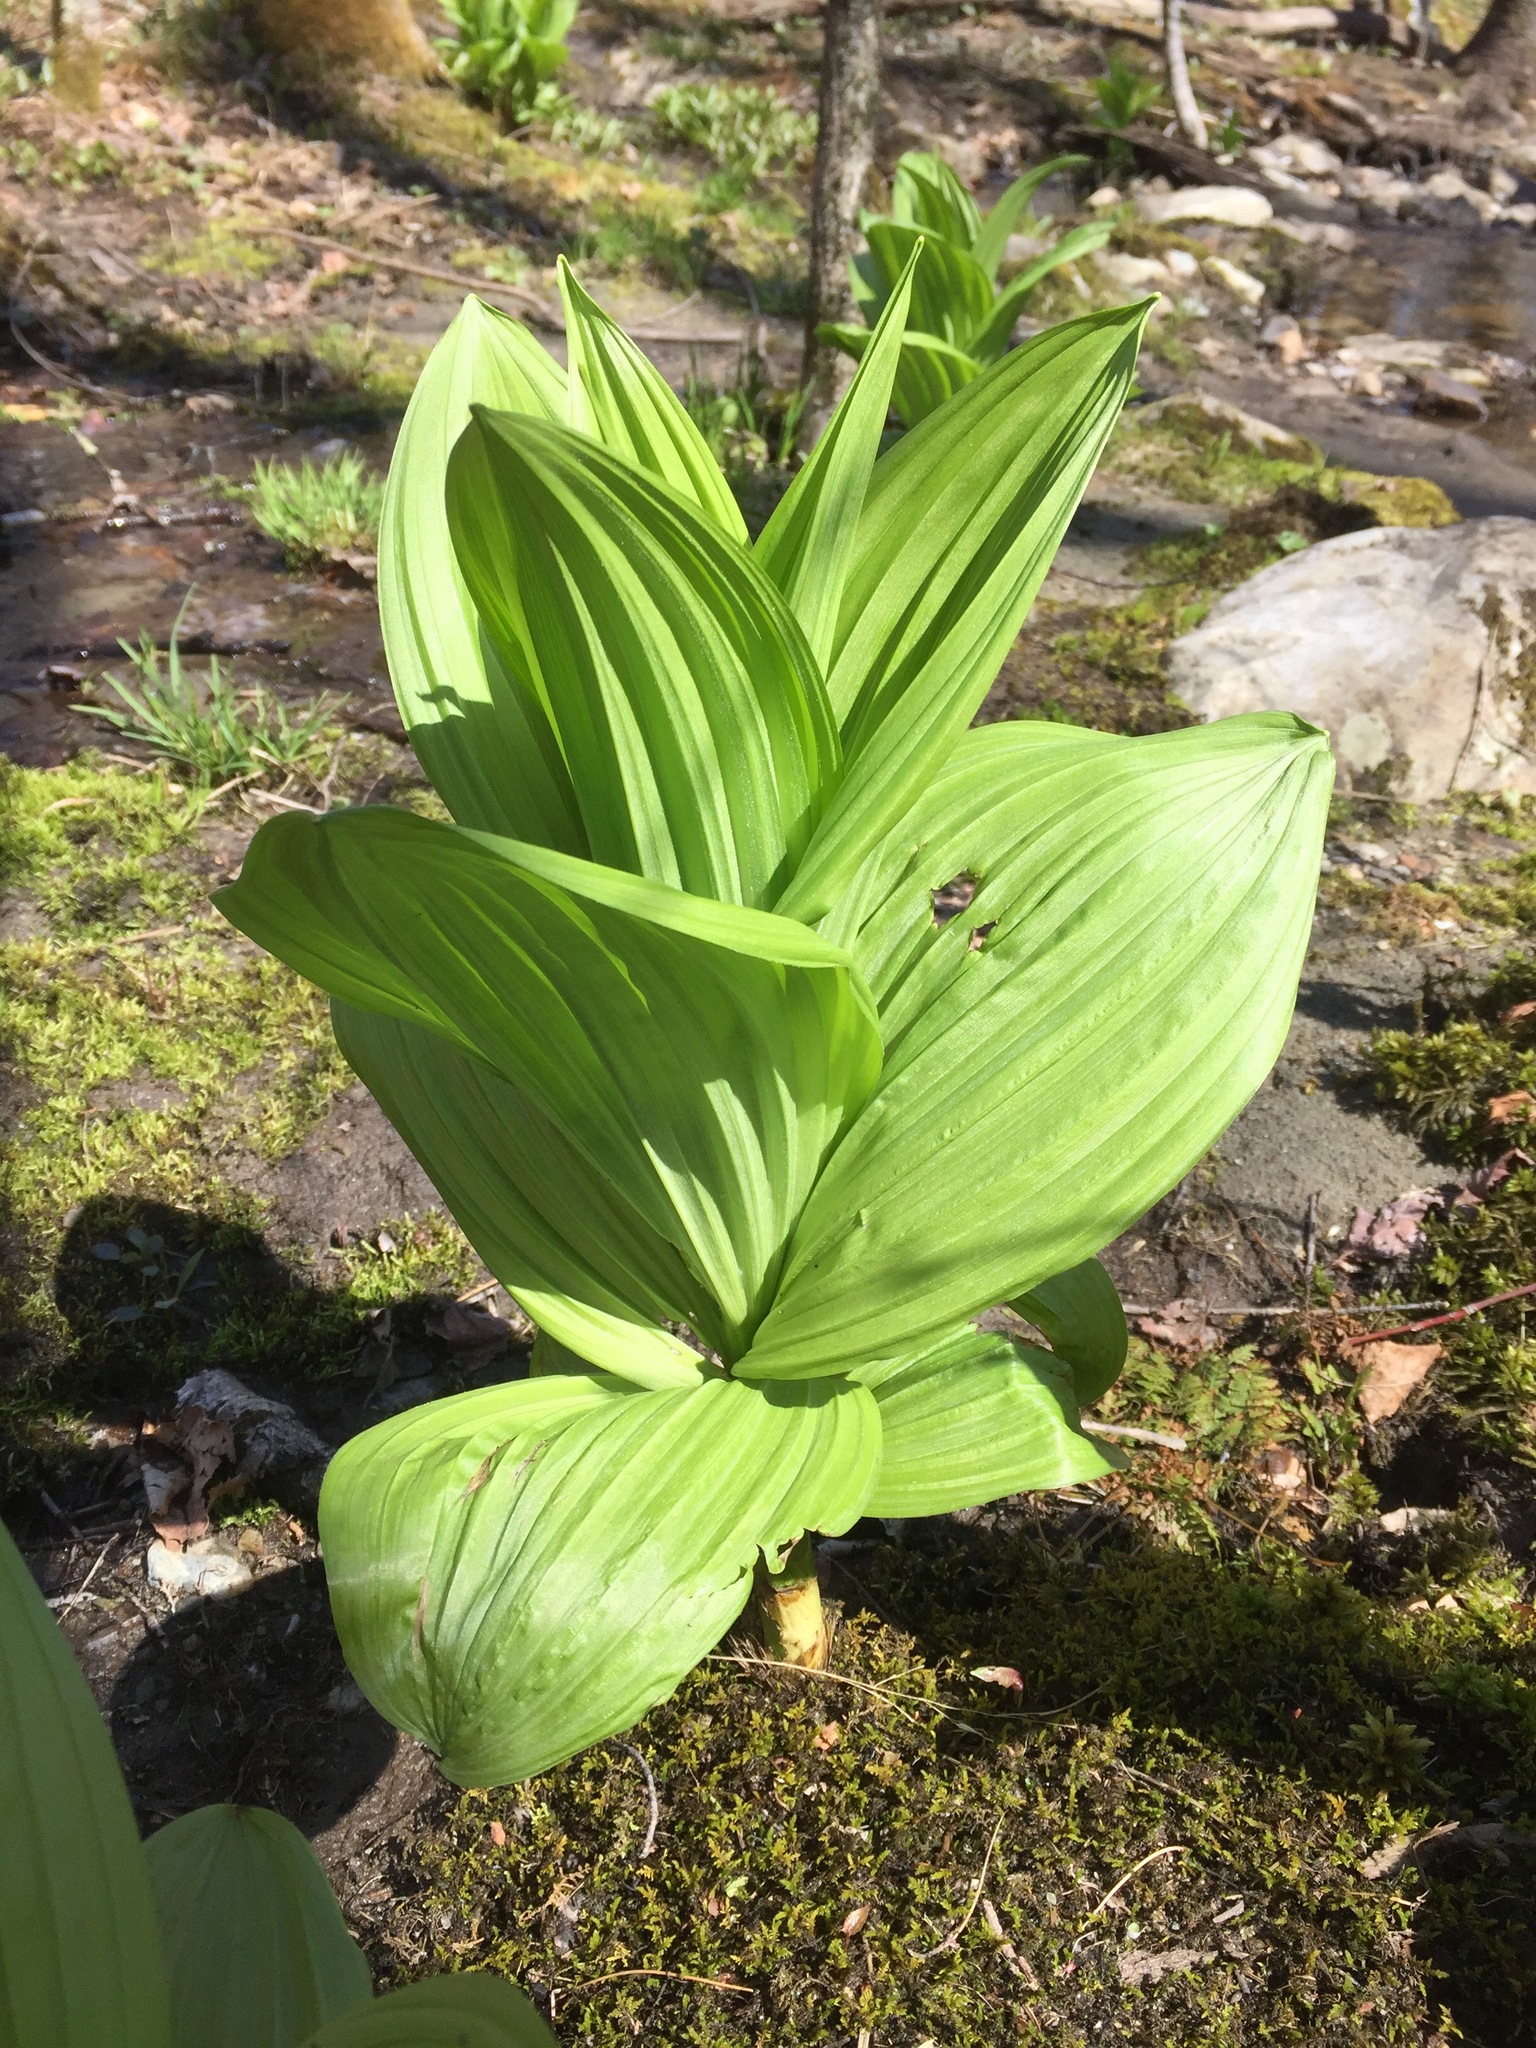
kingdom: Plantae
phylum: Tracheophyta
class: Liliopsida
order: Liliales
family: Melanthiaceae
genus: Veratrum
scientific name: Veratrum viride
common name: American false hellebore
